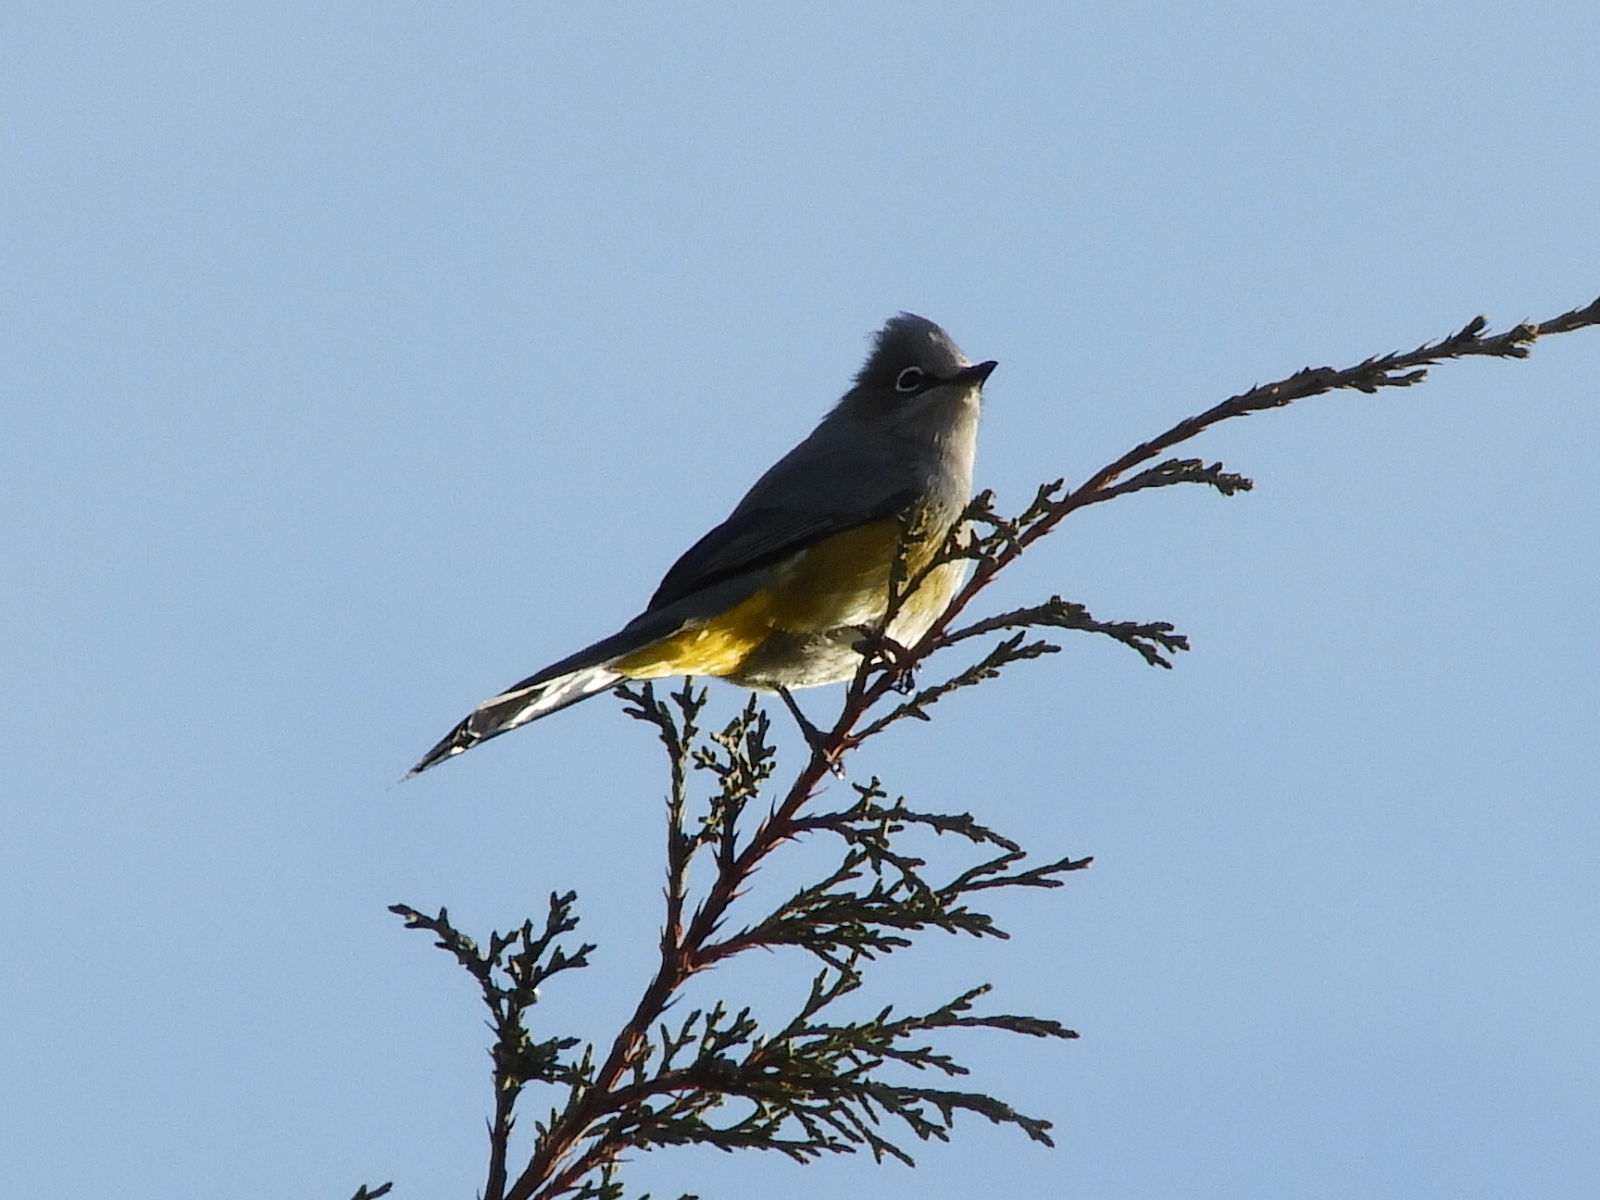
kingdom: Animalia
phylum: Chordata
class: Aves
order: Passeriformes
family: Ptilogonatidae
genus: Ptilogonys
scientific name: Ptilogonys cinereus
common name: Gray silky-flycatcher
